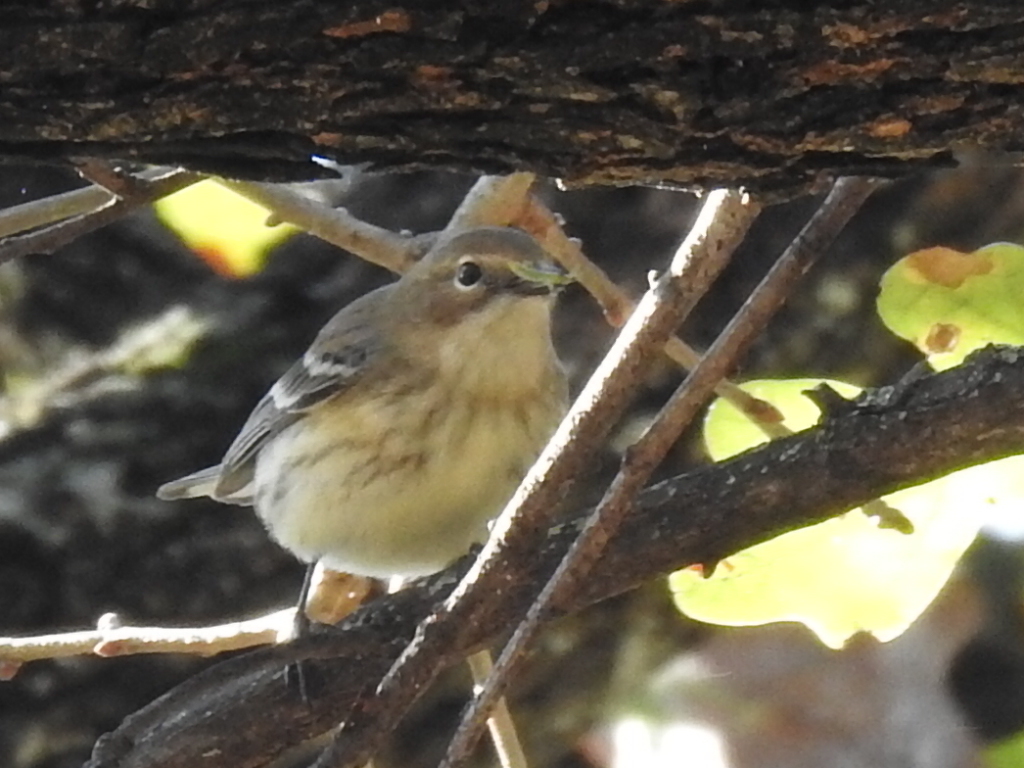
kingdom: Animalia
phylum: Chordata
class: Aves
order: Passeriformes
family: Parulidae
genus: Setophaga
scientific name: Setophaga coronata
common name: Myrtle warbler
